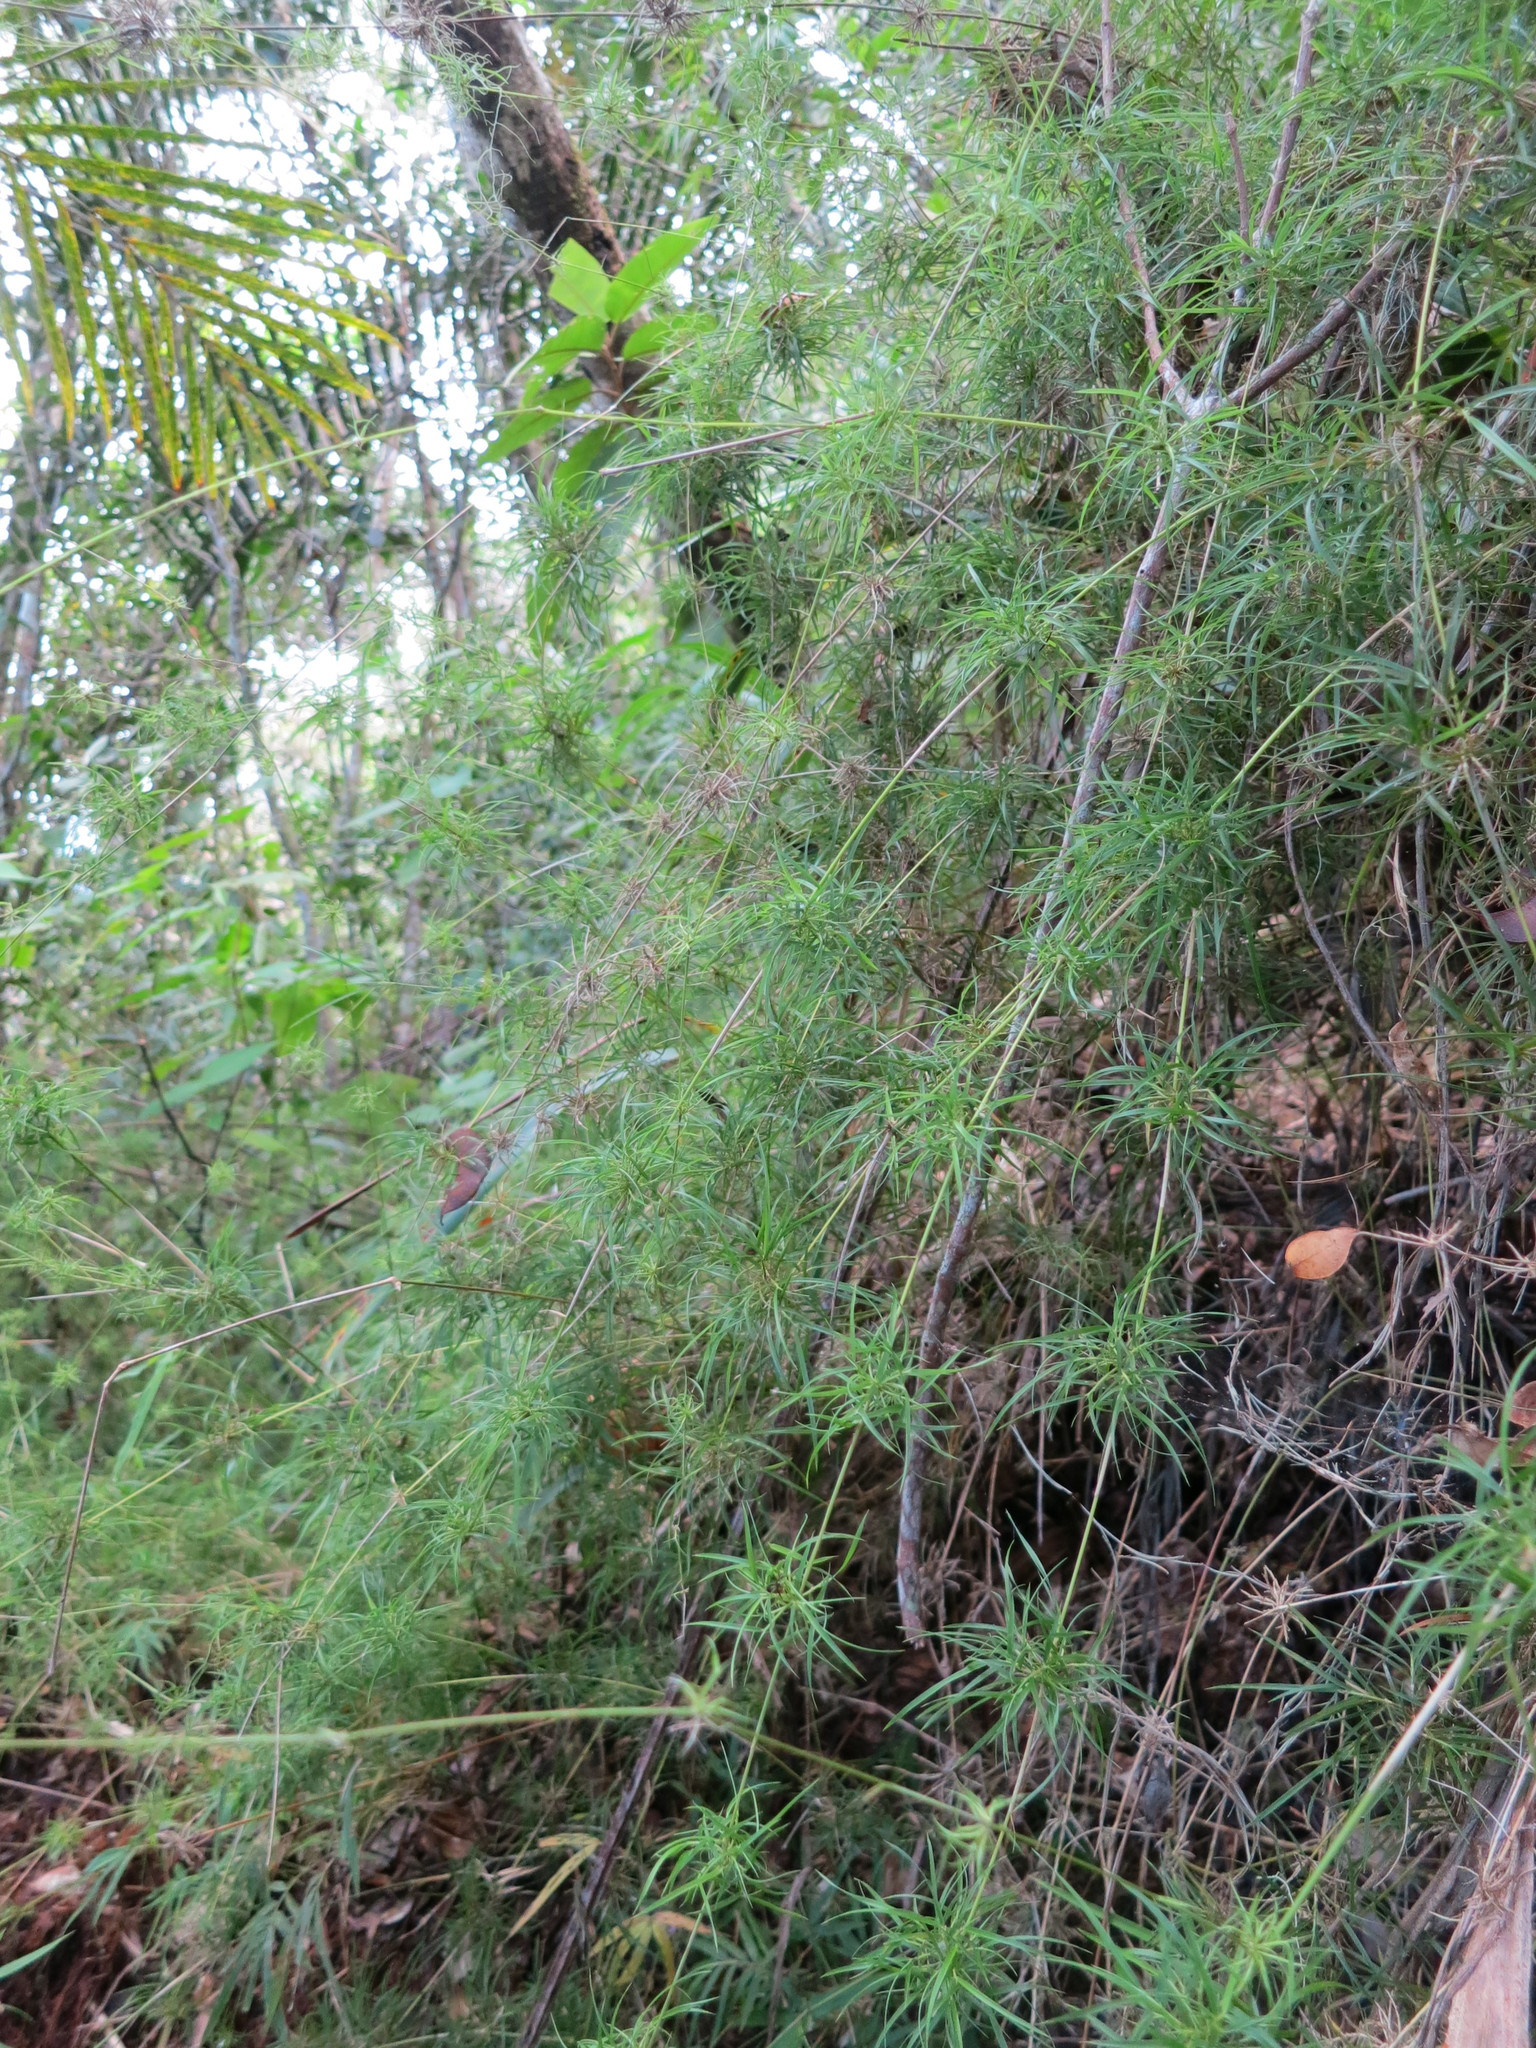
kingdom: Plantae
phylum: Tracheophyta
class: Liliopsida
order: Poales
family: Poaceae
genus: Nastus
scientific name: Nastus aristatus
